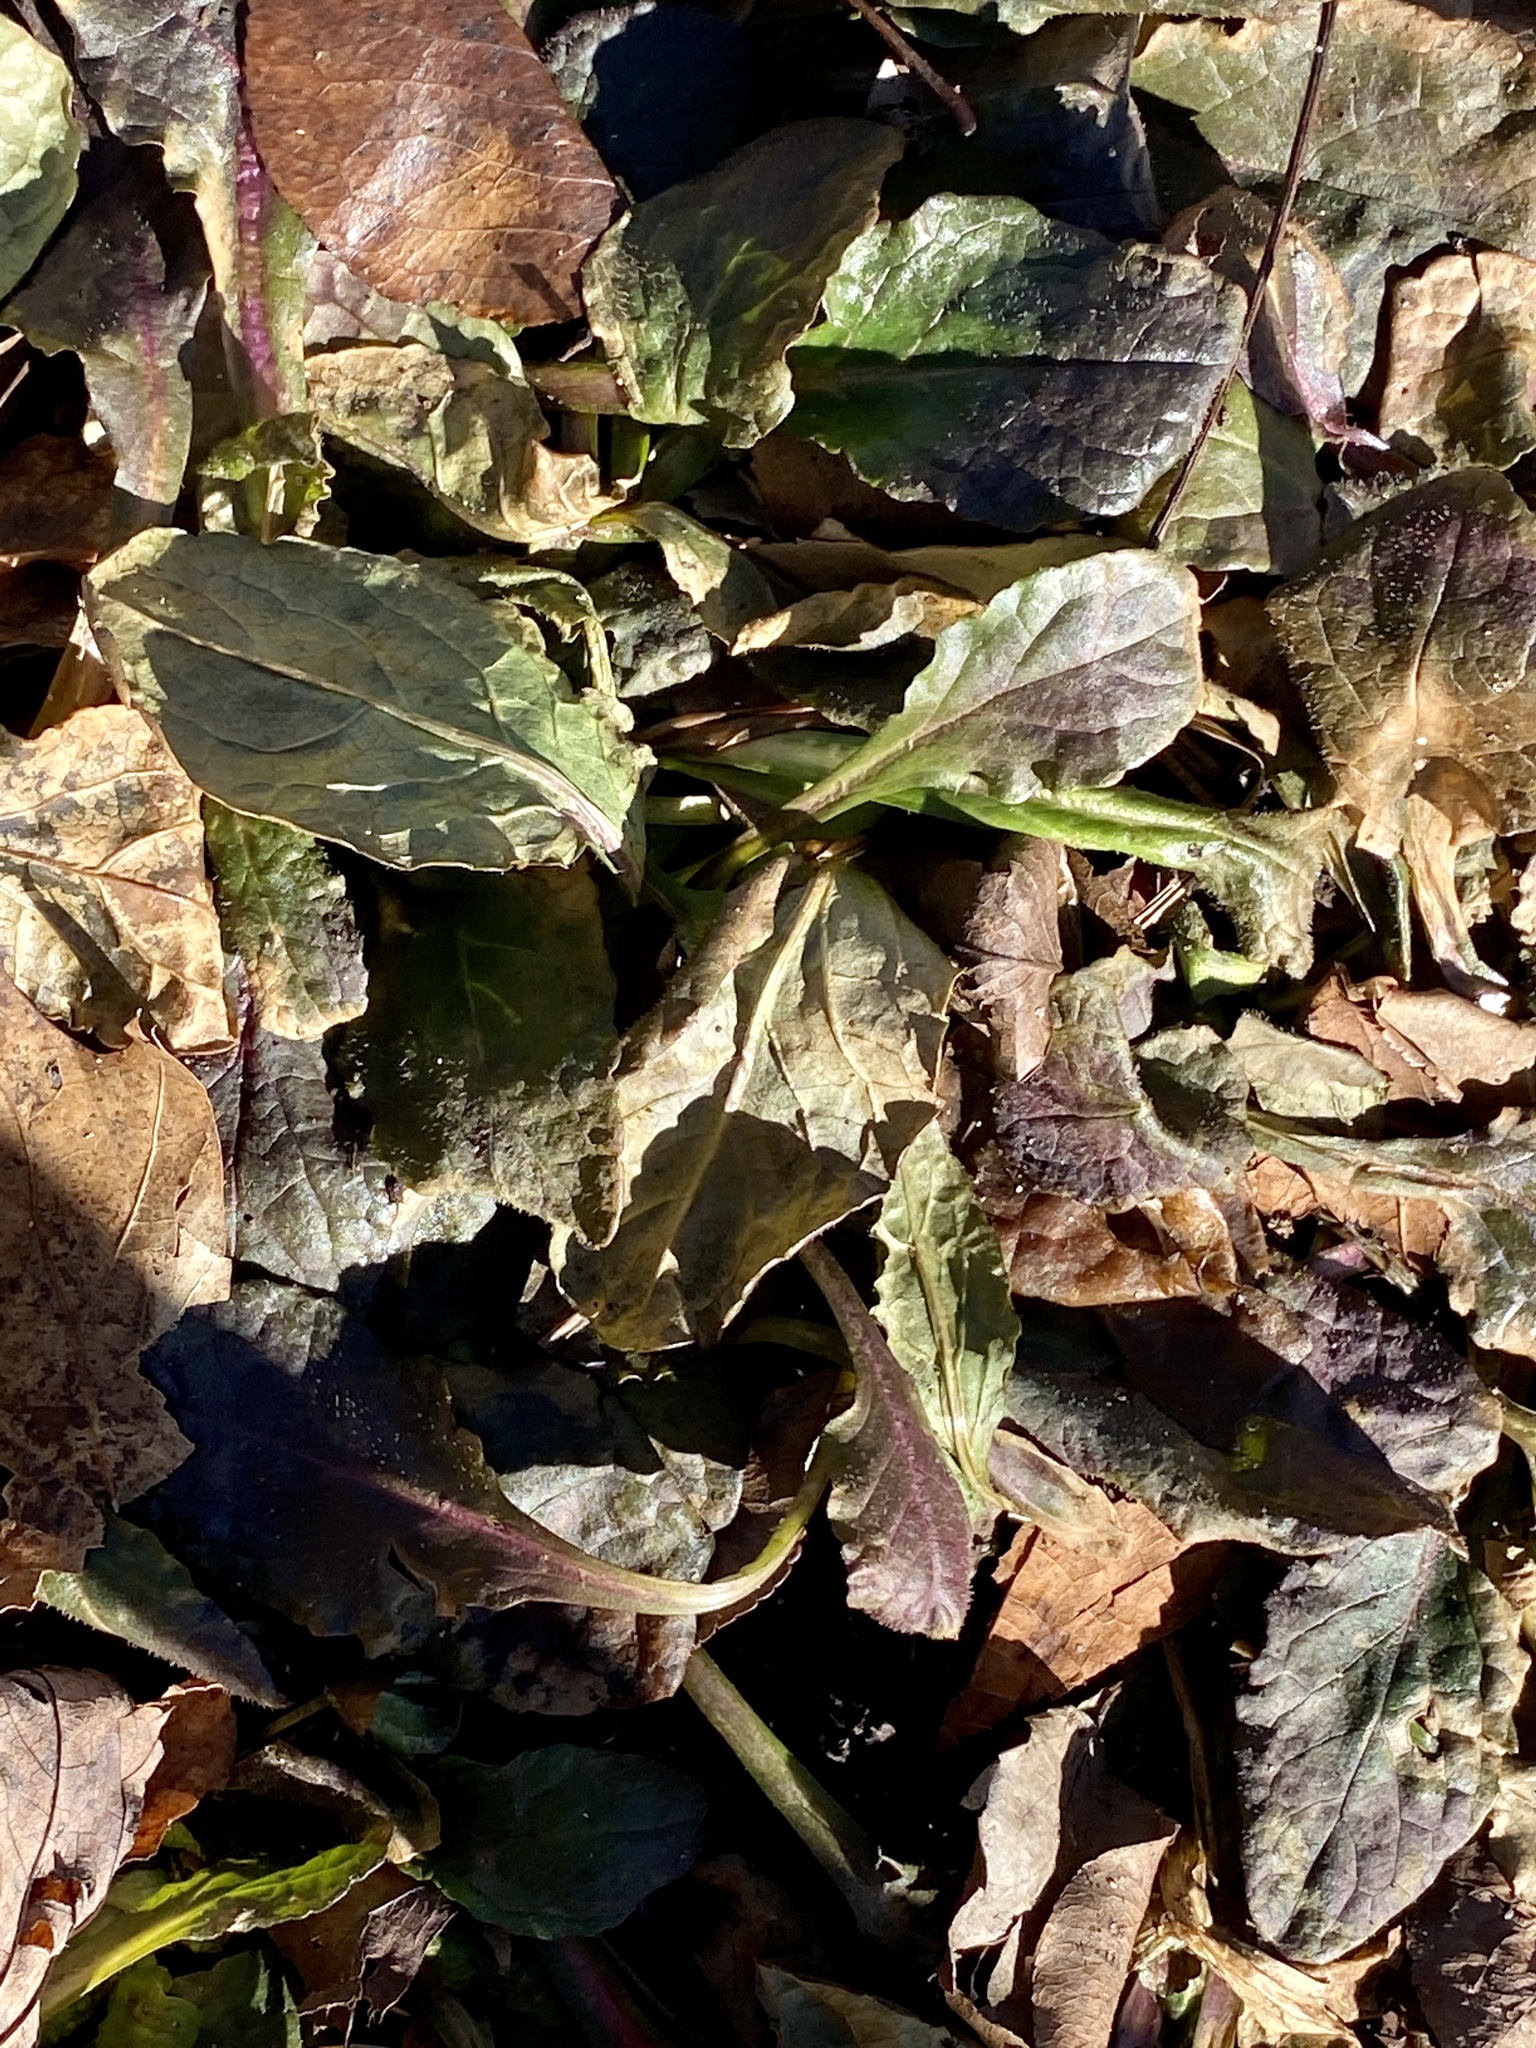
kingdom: Plantae
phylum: Tracheophyta
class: Magnoliopsida
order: Lamiales
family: Lamiaceae
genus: Ajuga
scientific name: Ajuga reptans
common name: Bugle
